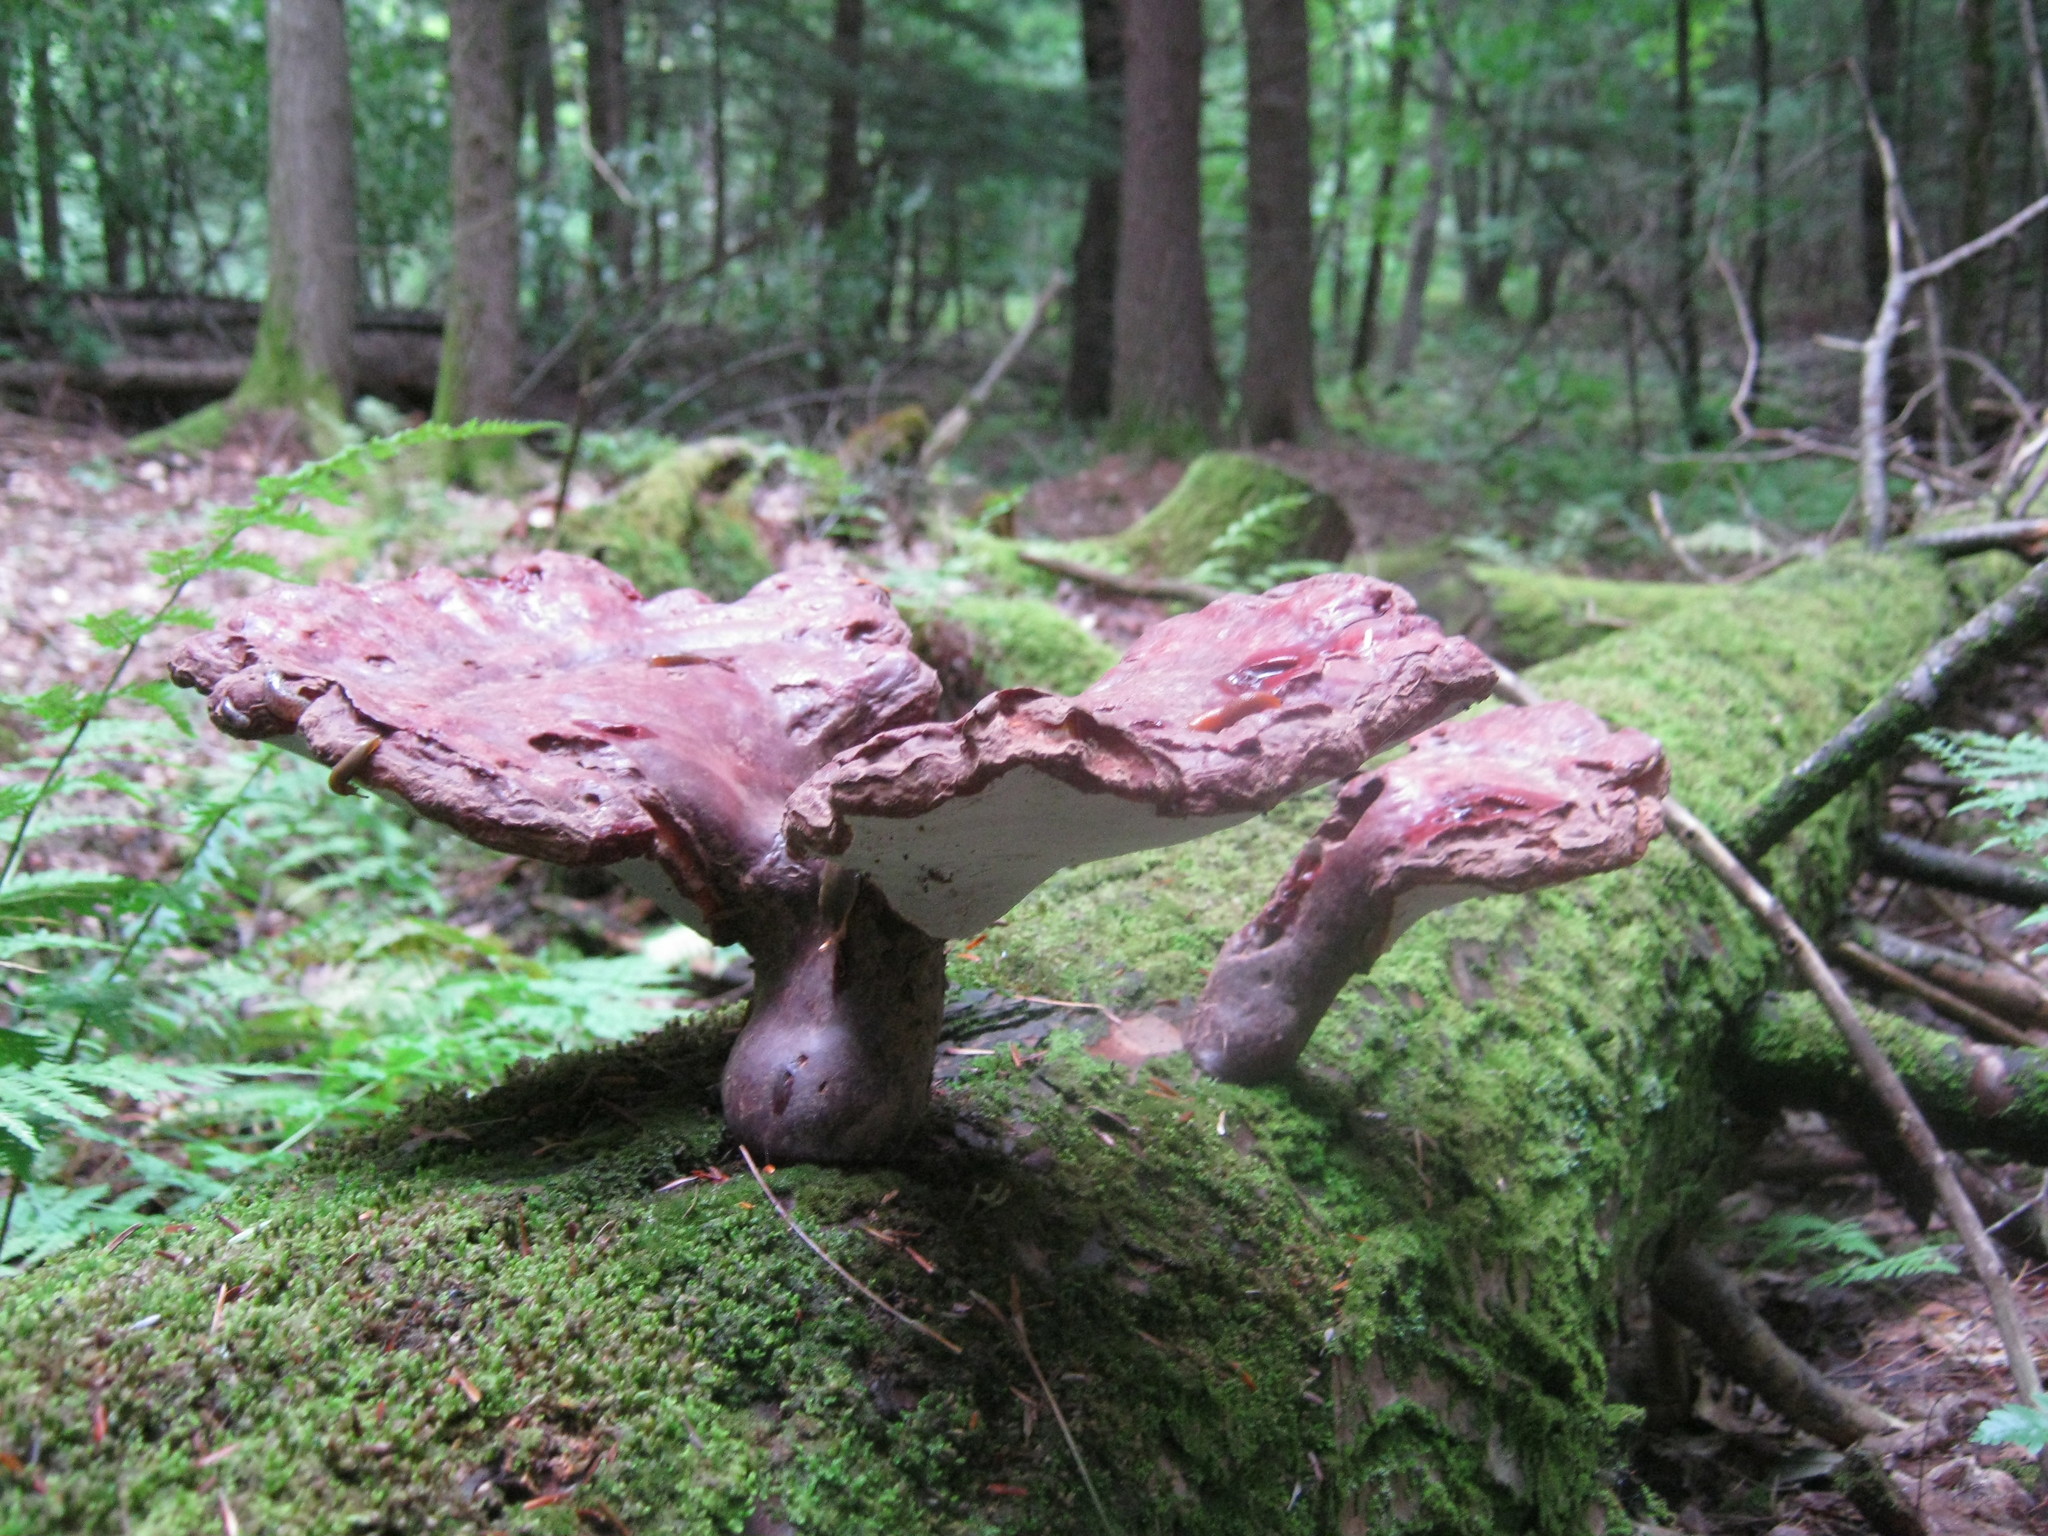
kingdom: Fungi
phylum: Basidiomycota
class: Agaricomycetes
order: Polyporales
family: Polyporaceae
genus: Ganoderma
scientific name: Ganoderma tsugae
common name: Hemlock varnish shelf
